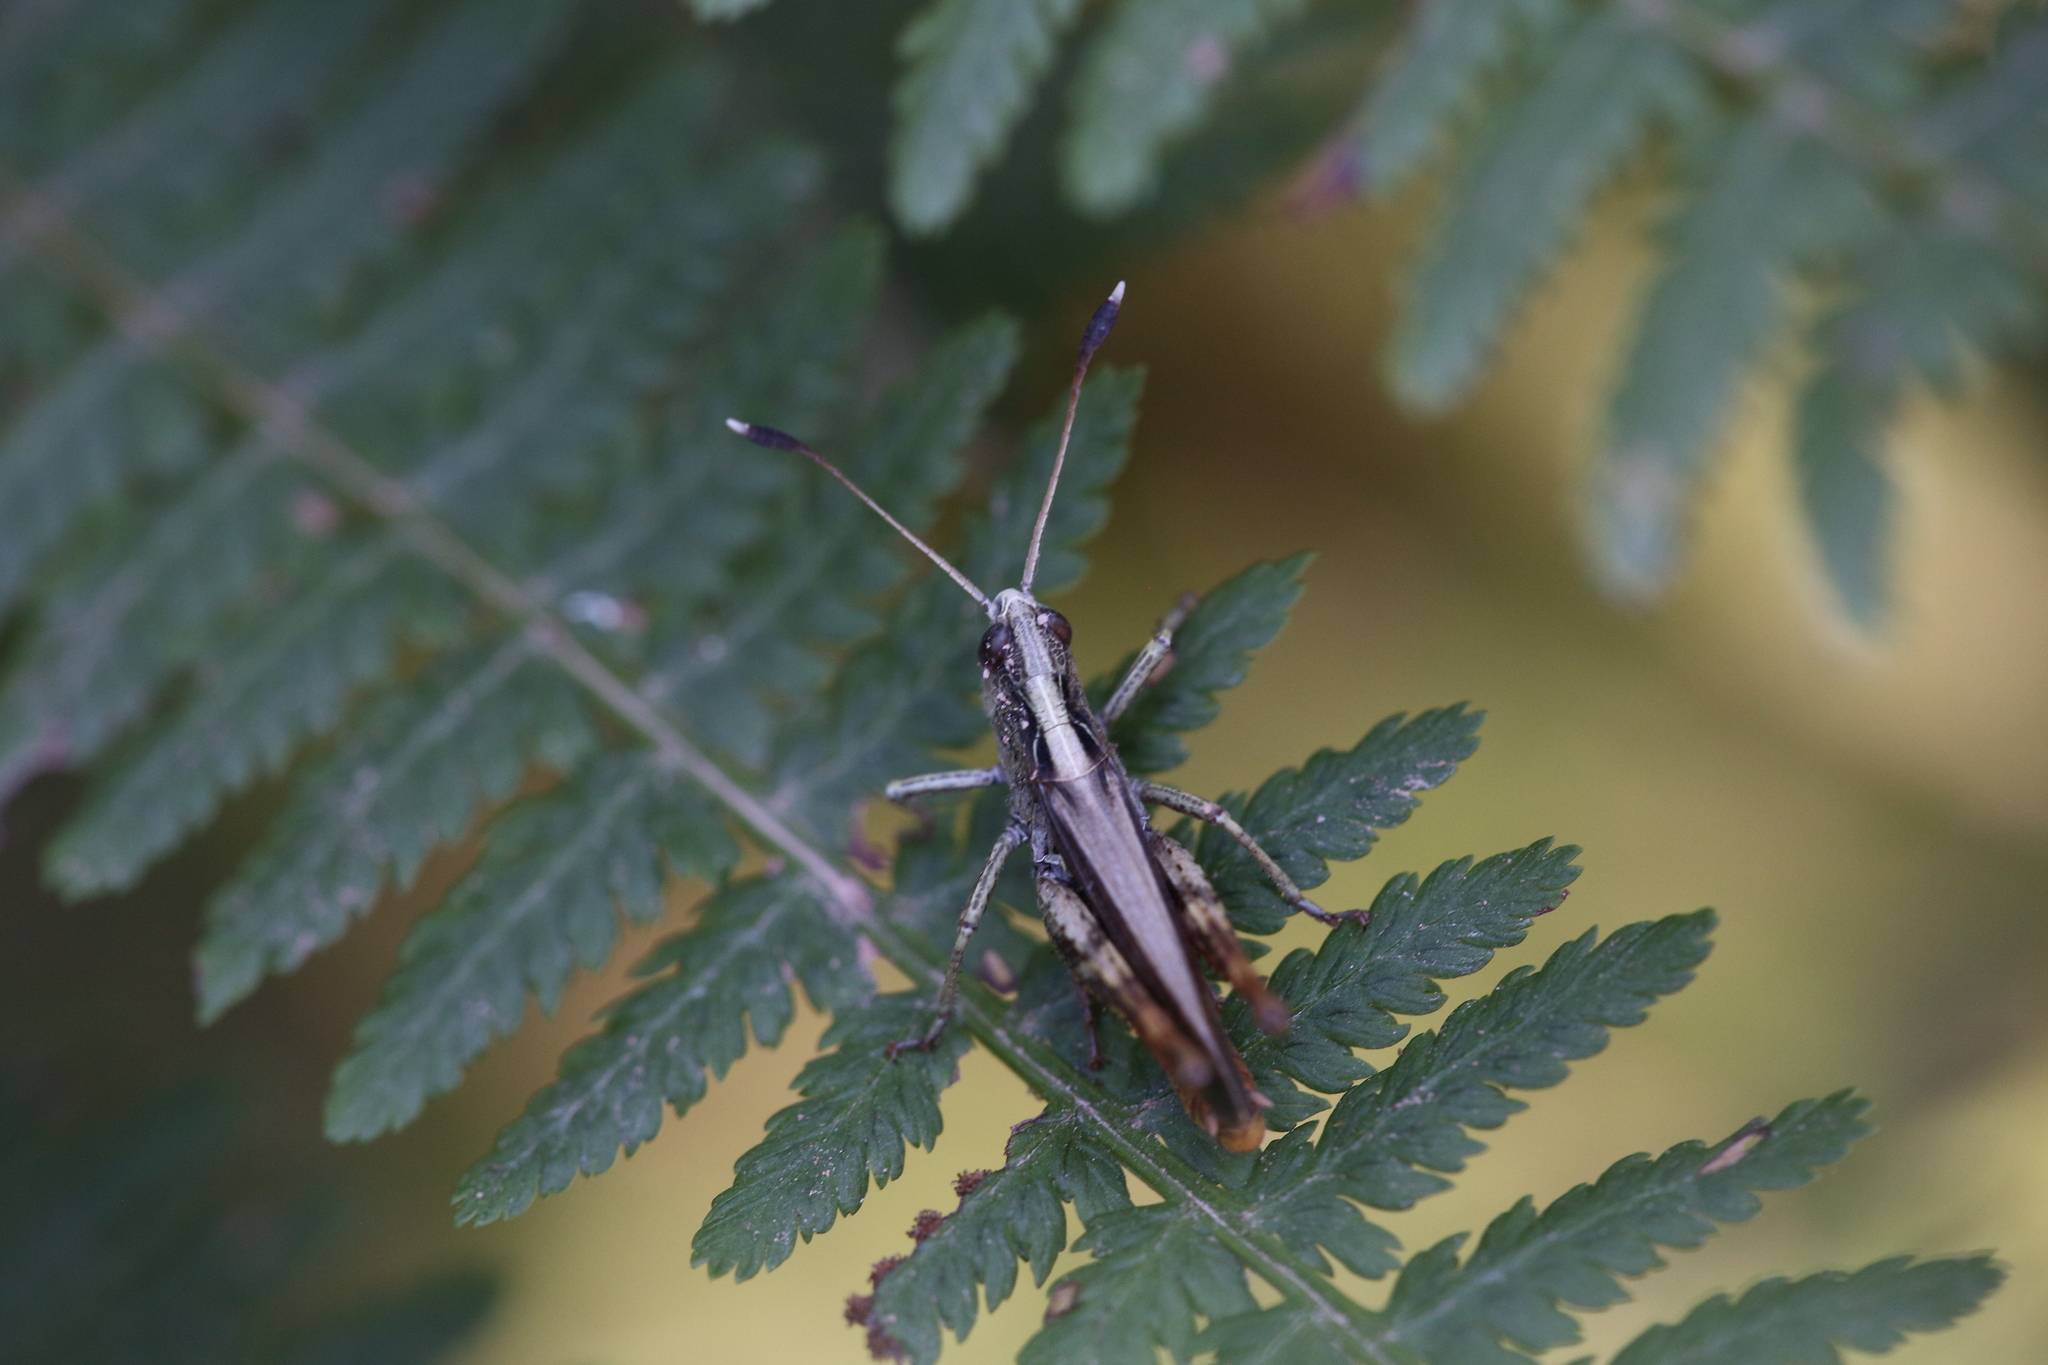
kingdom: Animalia
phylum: Arthropoda
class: Insecta
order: Orthoptera
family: Acrididae
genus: Gomphocerippus
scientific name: Gomphocerippus rufus
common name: Rufous grasshopper
